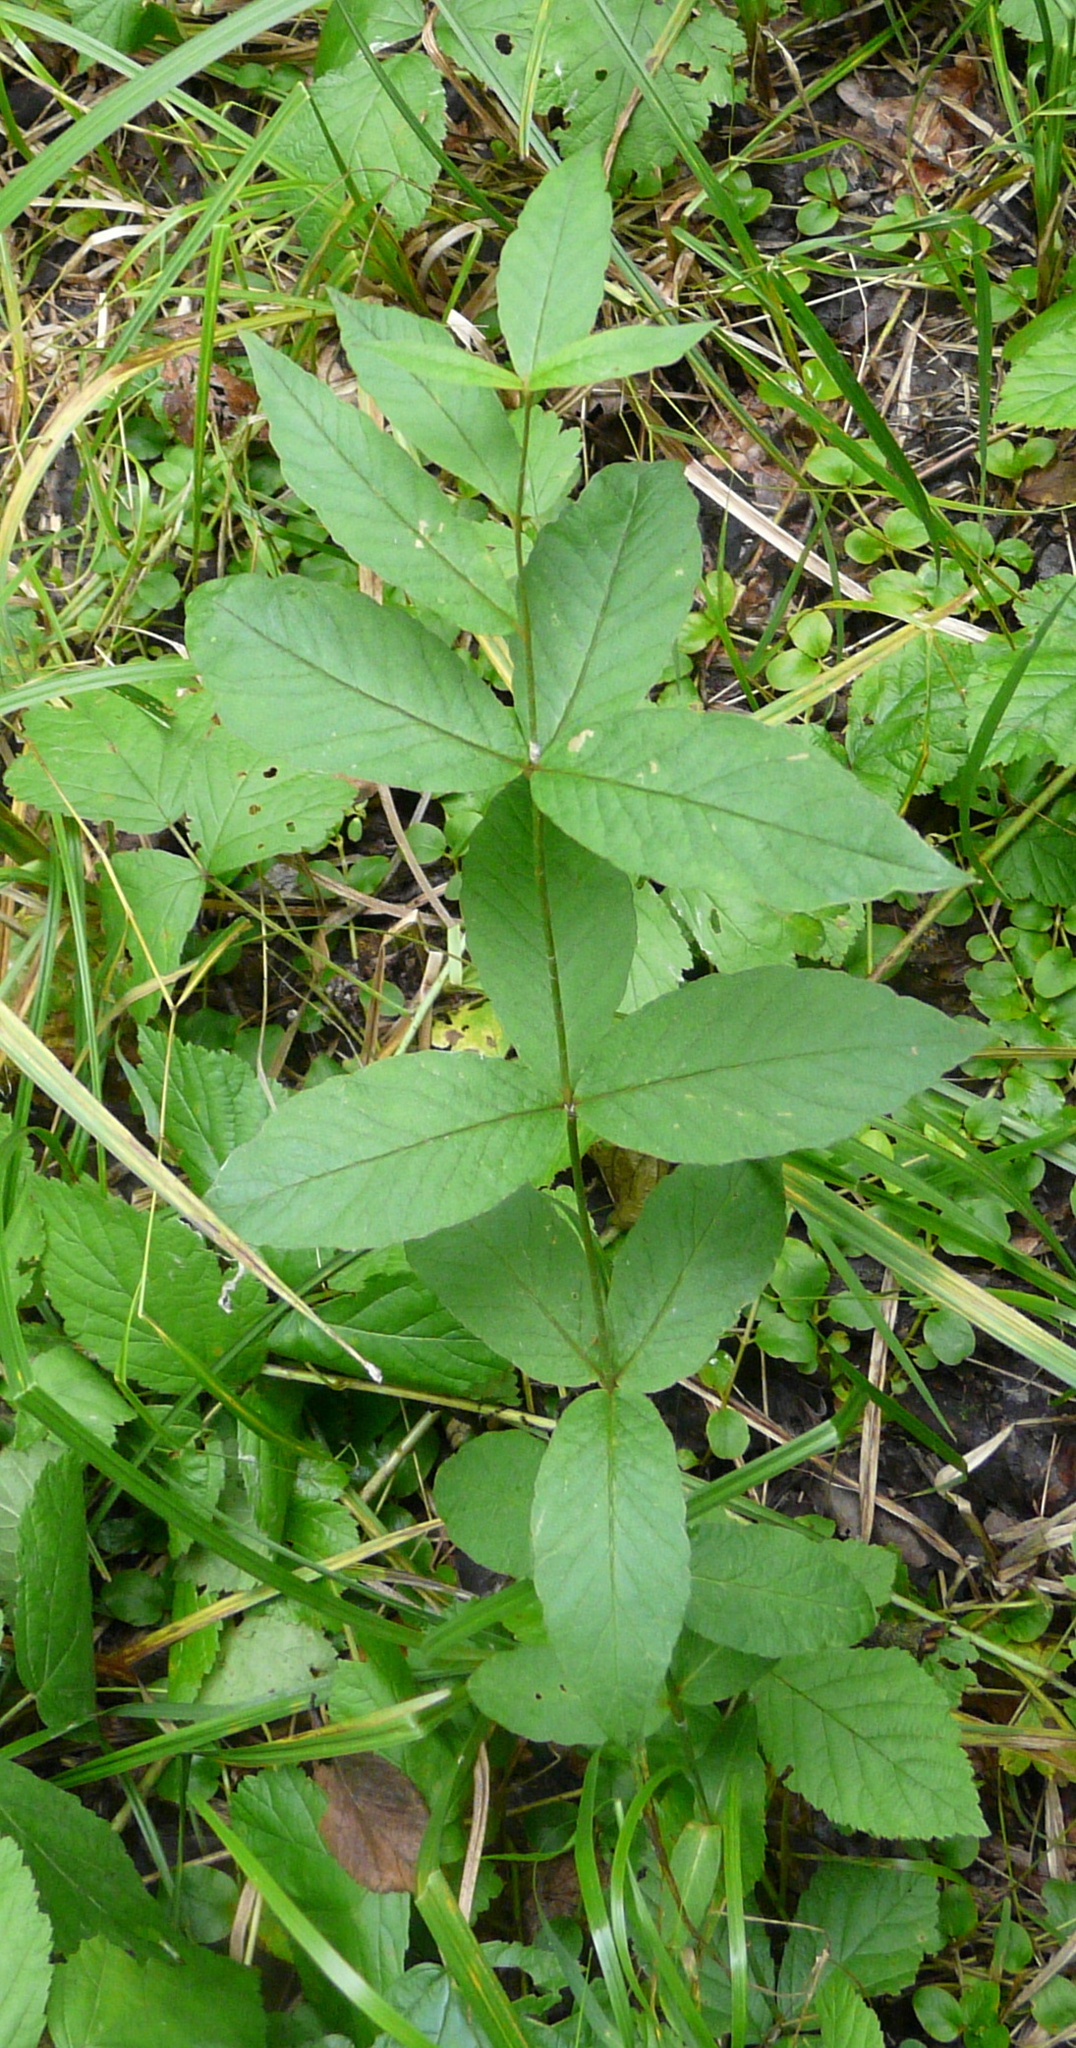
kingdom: Plantae
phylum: Tracheophyta
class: Magnoliopsida
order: Ericales
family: Primulaceae
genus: Lysimachia
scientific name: Lysimachia vulgaris
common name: Yellow loosestrife
